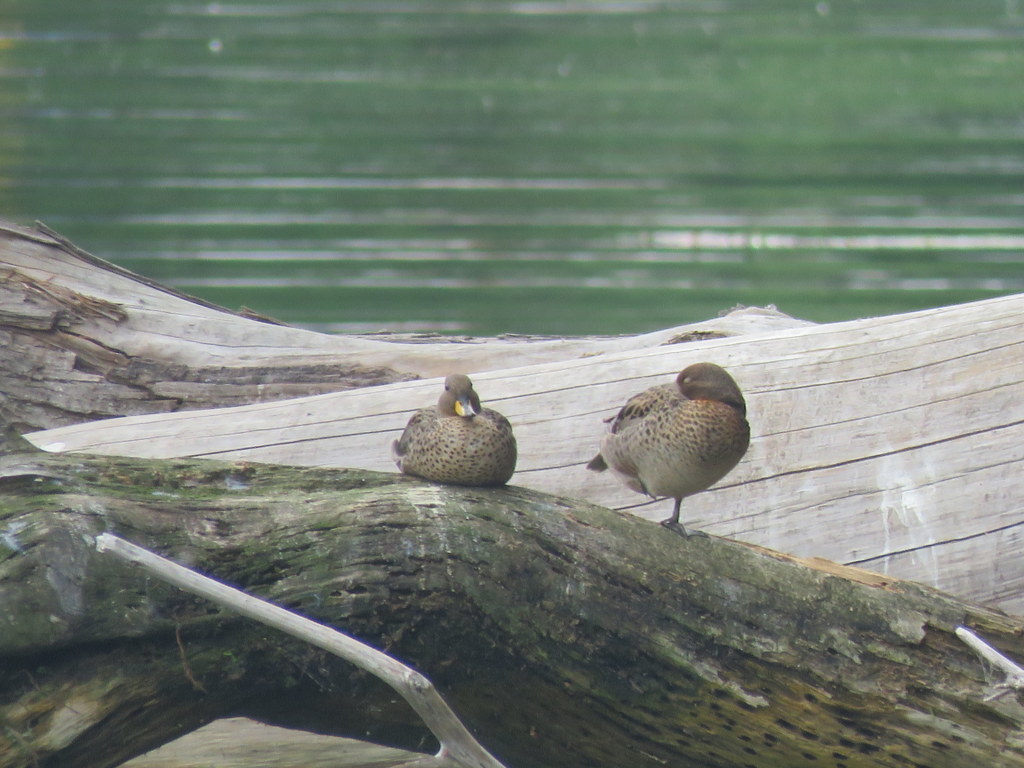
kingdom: Animalia
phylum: Chordata
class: Aves
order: Anseriformes
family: Anatidae
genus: Anas
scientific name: Anas flavirostris
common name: Yellow-billed teal
